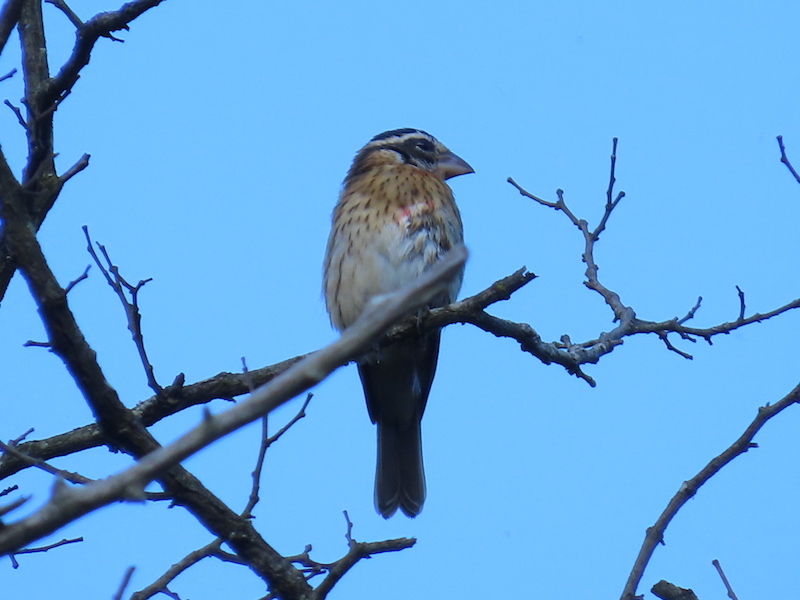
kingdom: Animalia
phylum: Chordata
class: Aves
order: Passeriformes
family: Cardinalidae
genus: Pheucticus
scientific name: Pheucticus ludovicianus
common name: Rose-breasted grosbeak
